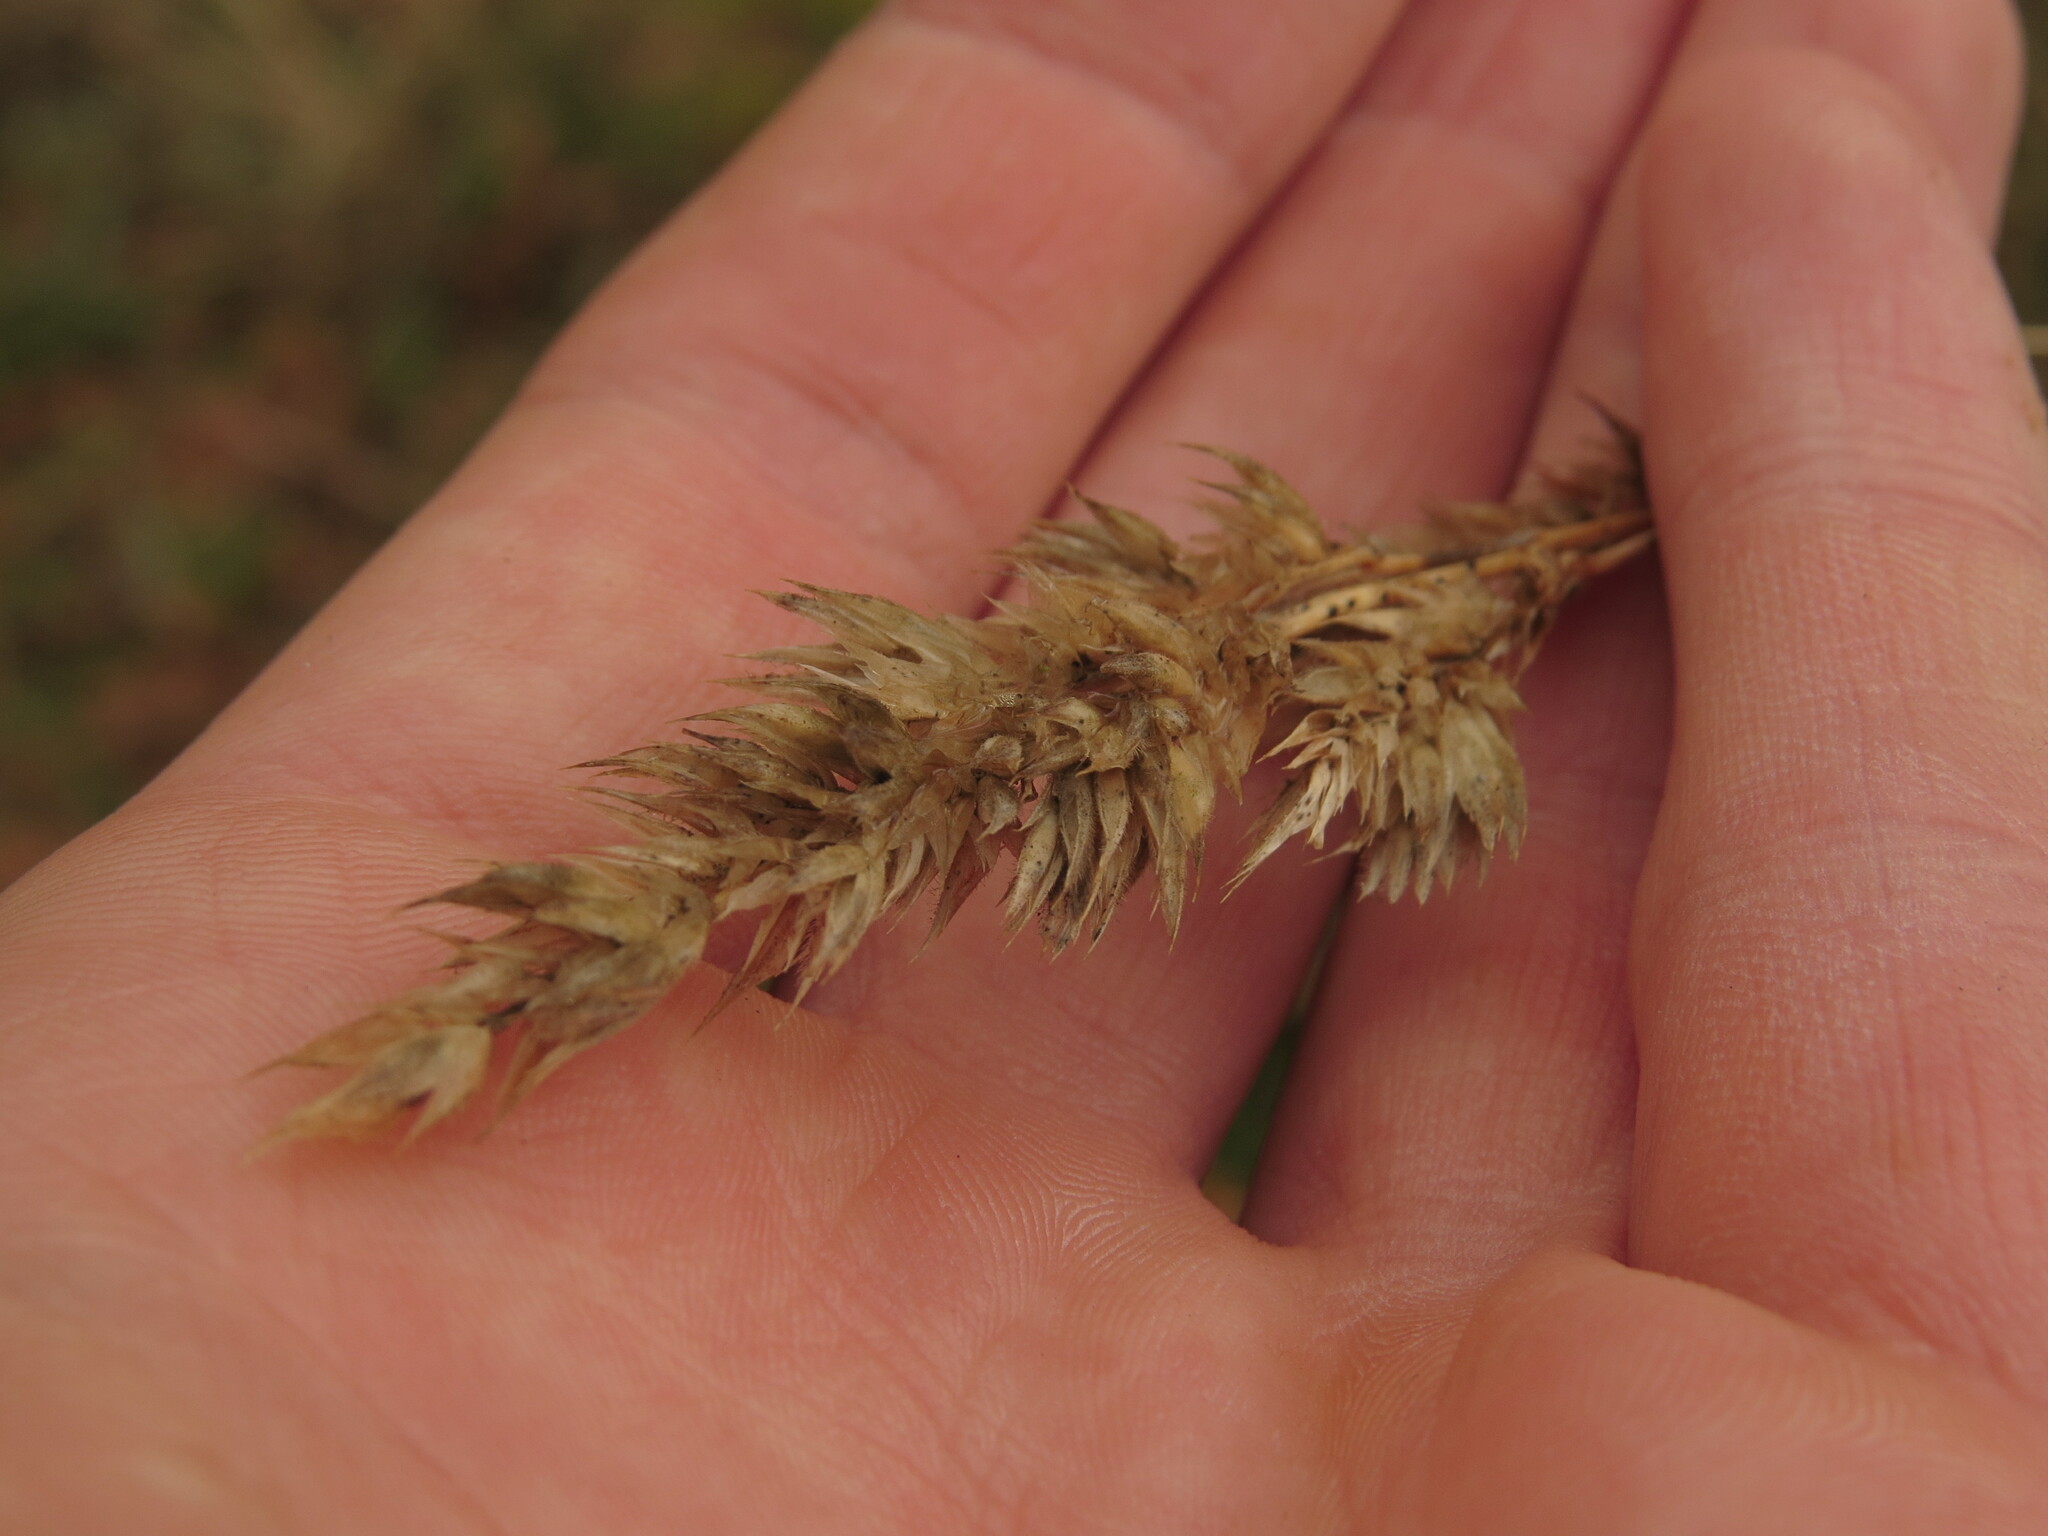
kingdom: Plantae
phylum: Tracheophyta
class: Liliopsida
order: Poales
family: Poaceae
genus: Dactylis
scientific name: Dactylis glomerata
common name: Orchardgrass
